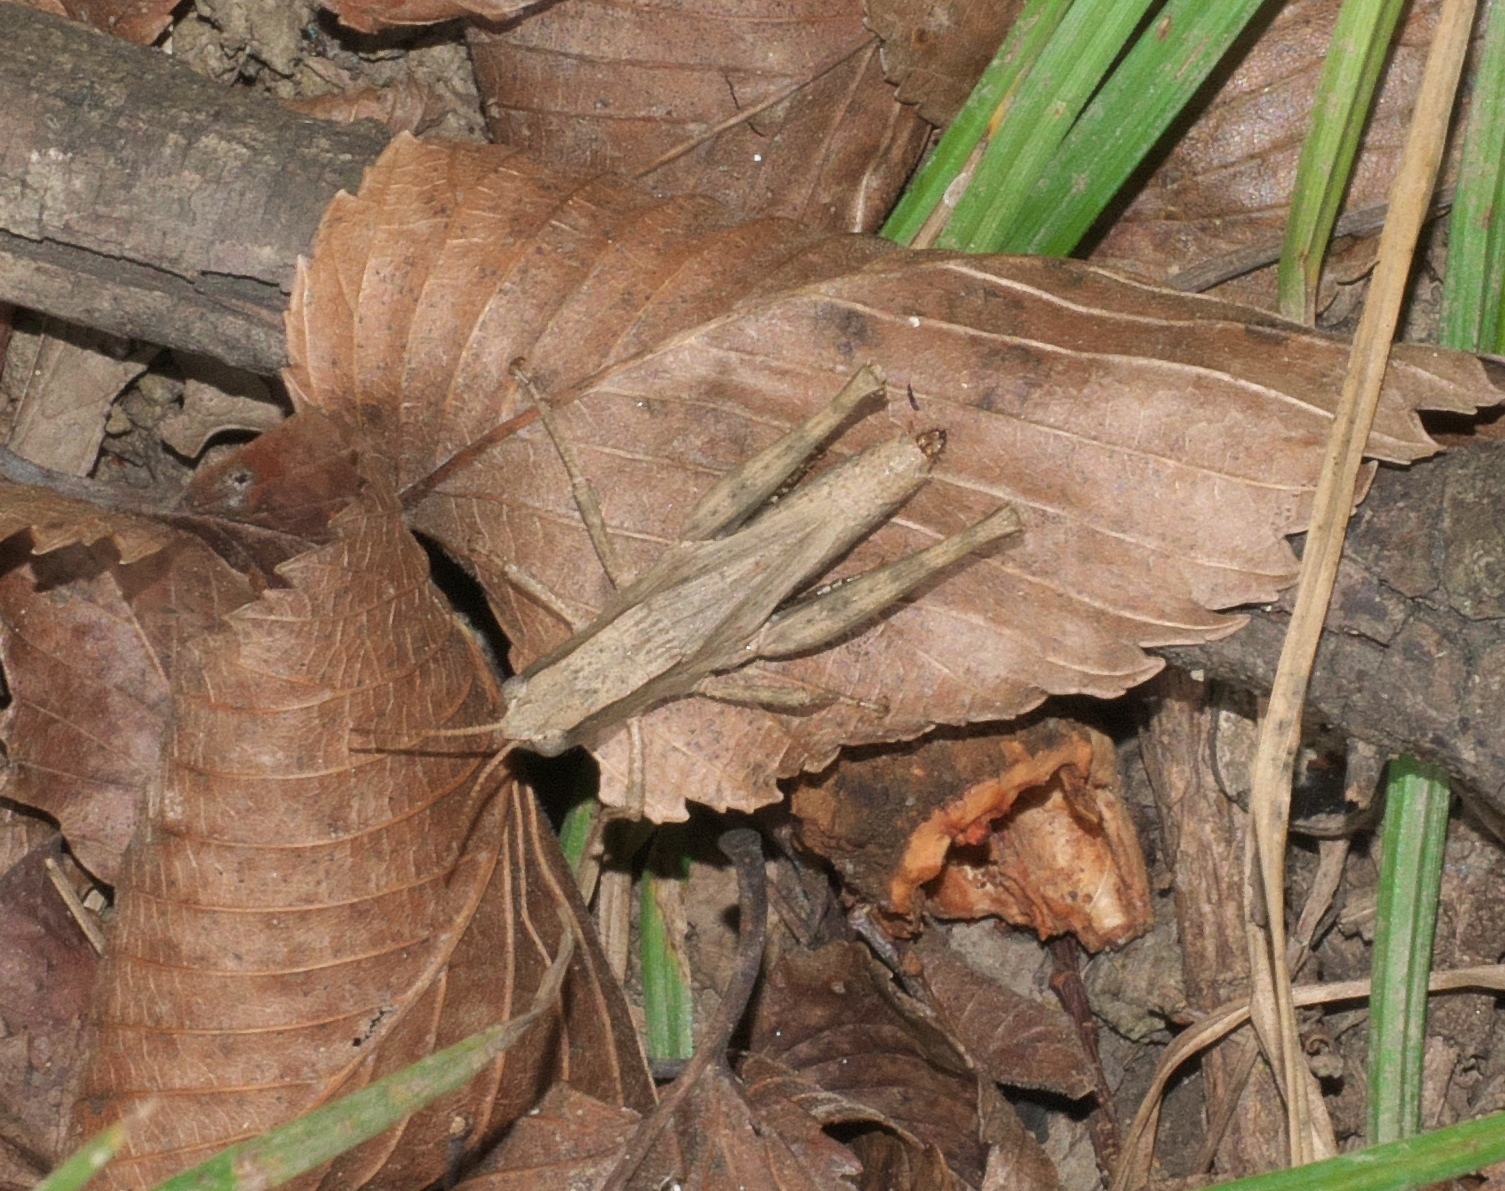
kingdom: Animalia
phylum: Arthropoda
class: Insecta
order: Orthoptera
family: Acrididae
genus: Dichromorpha
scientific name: Dichromorpha viridis
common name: Short-winged green grasshopper
